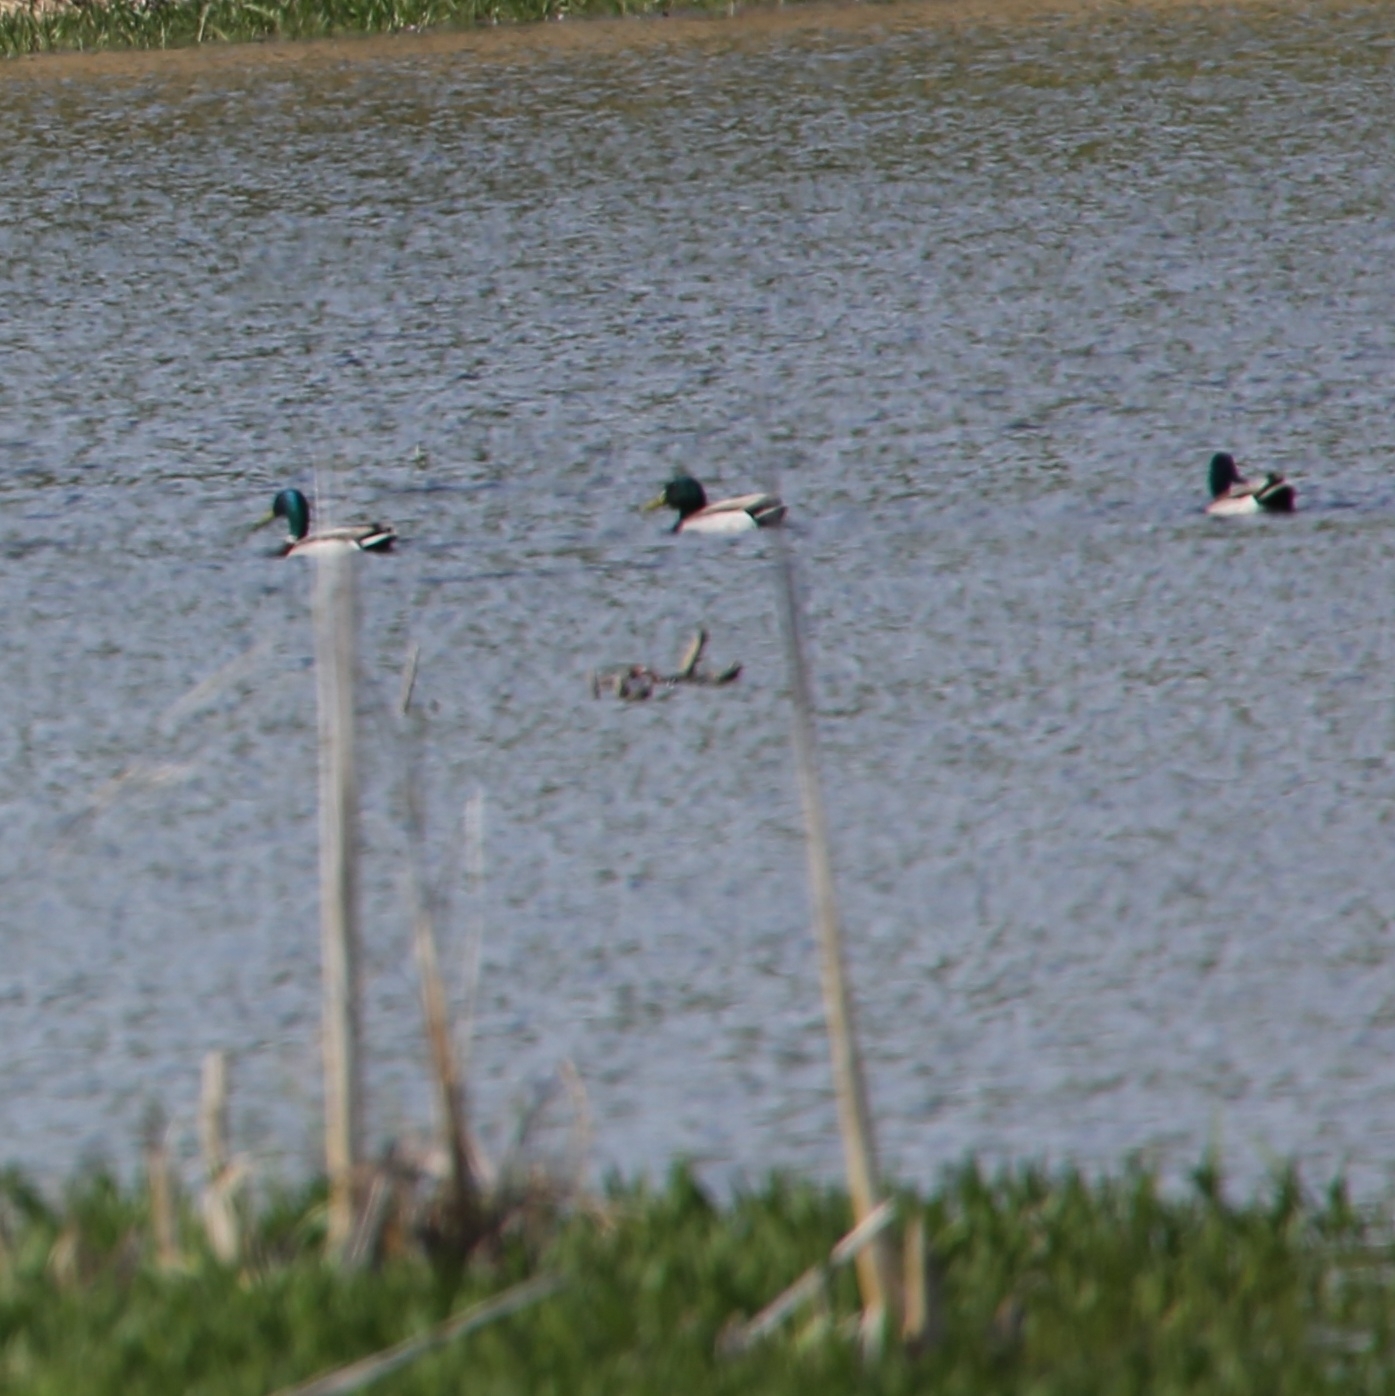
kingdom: Animalia
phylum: Chordata
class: Aves
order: Anseriformes
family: Anatidae
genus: Anas
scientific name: Anas platyrhynchos
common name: Mallard
